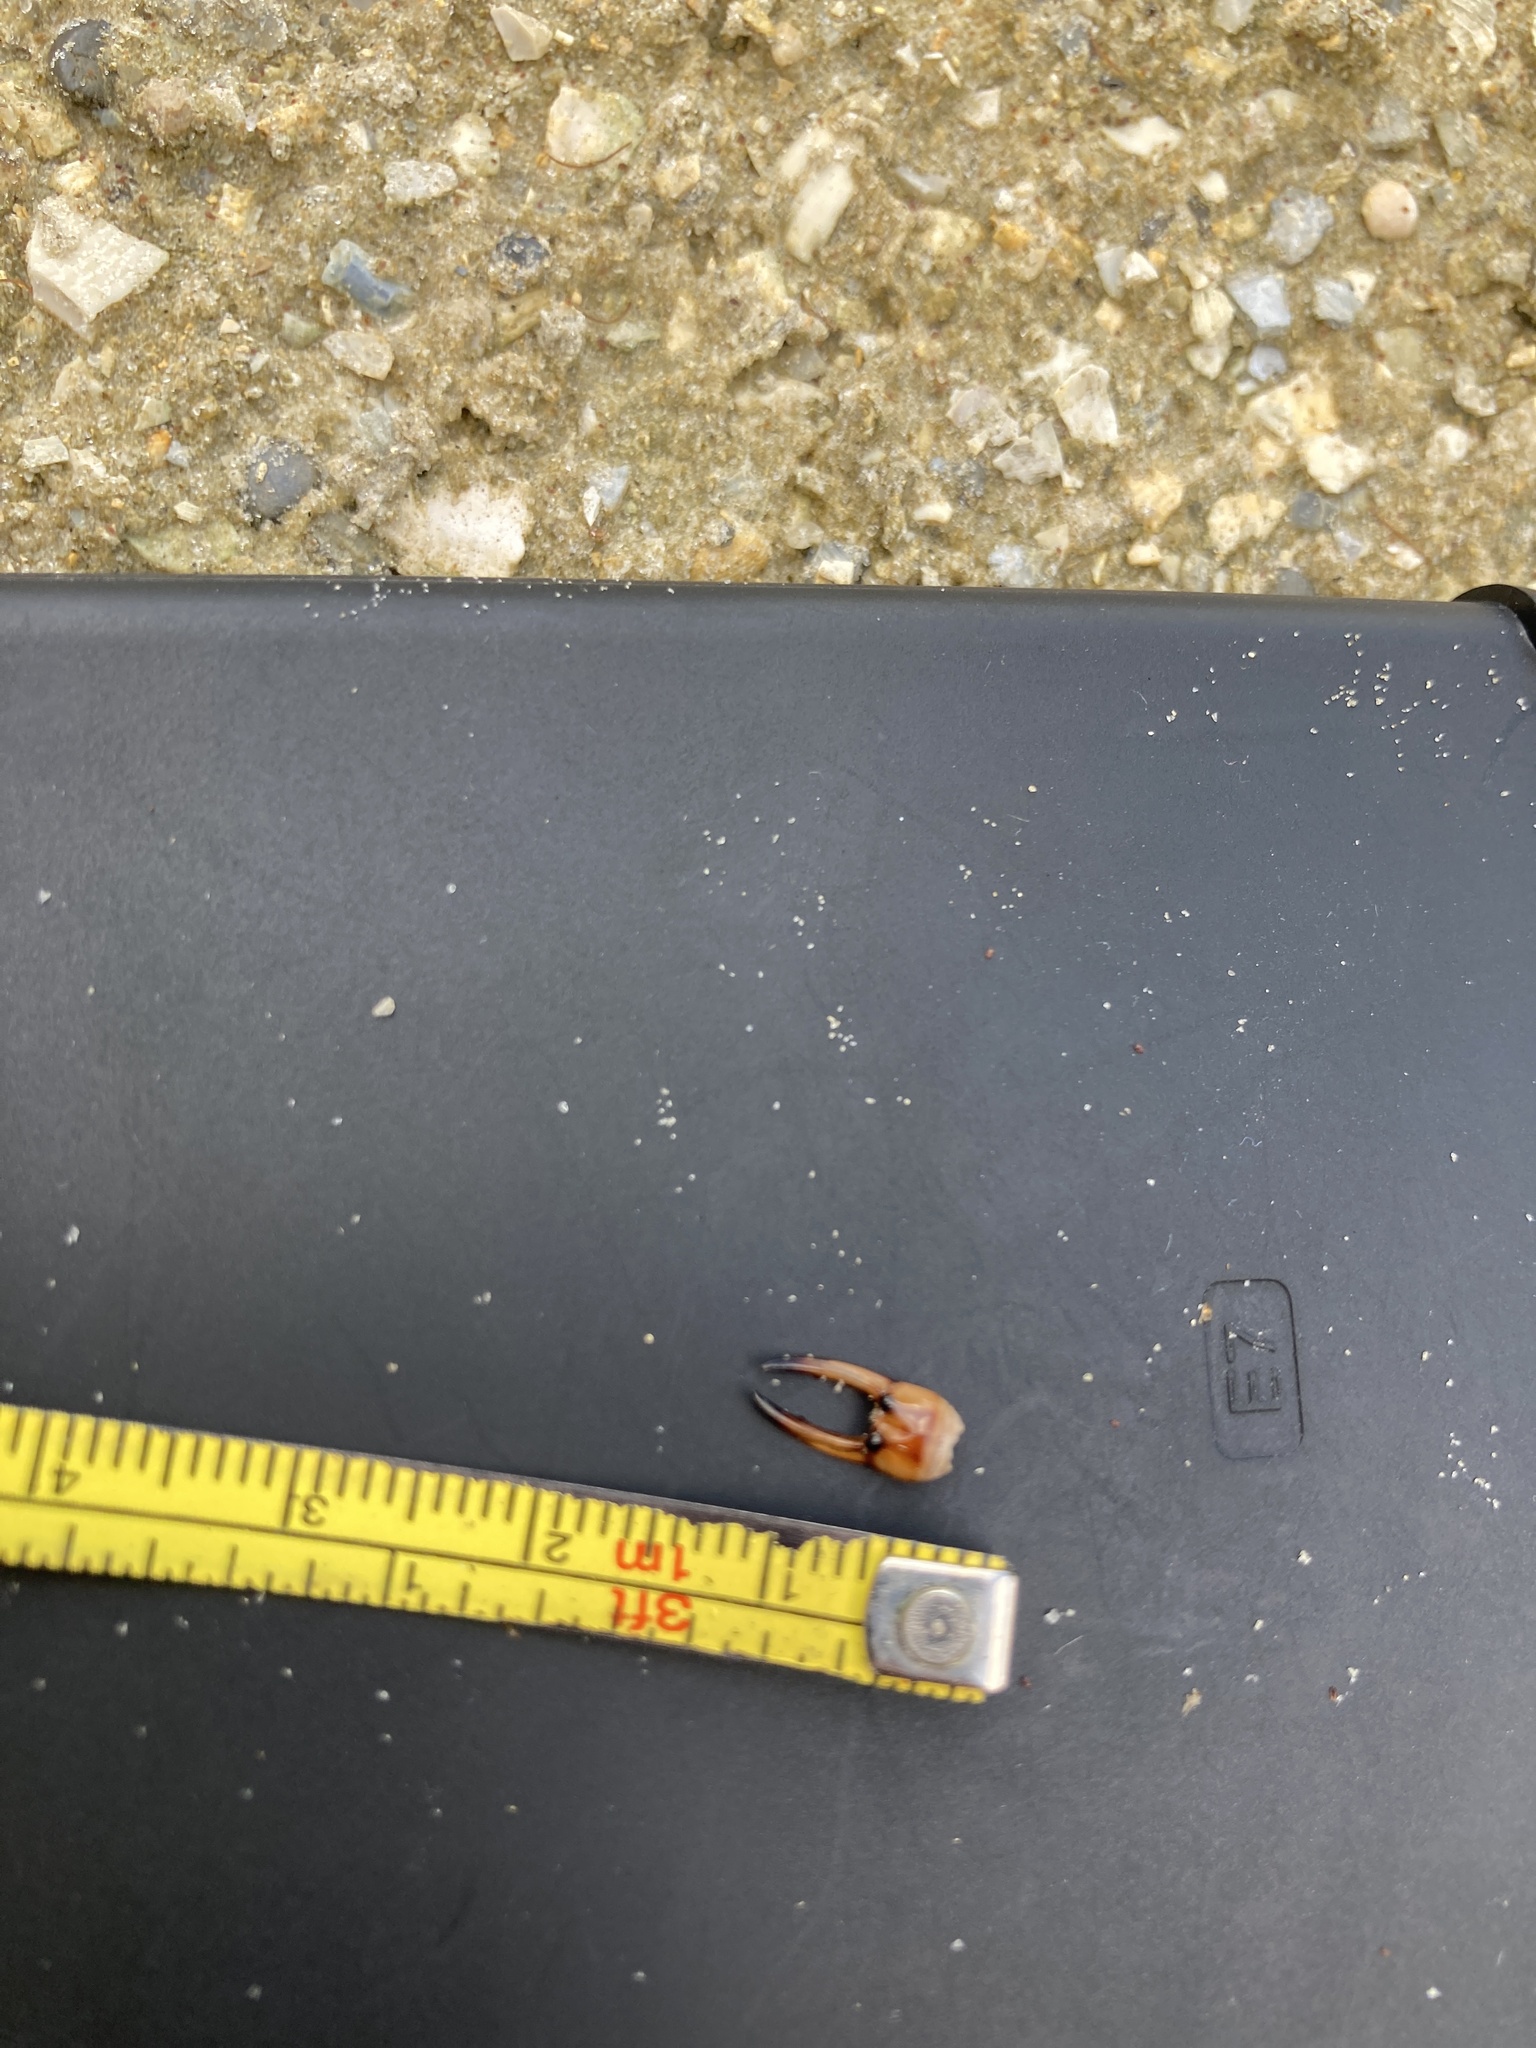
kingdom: Animalia
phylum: Arthropoda
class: Insecta
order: Dermaptera
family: Labiduridae
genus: Labidura
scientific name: Labidura riparia
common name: Striped earwig
